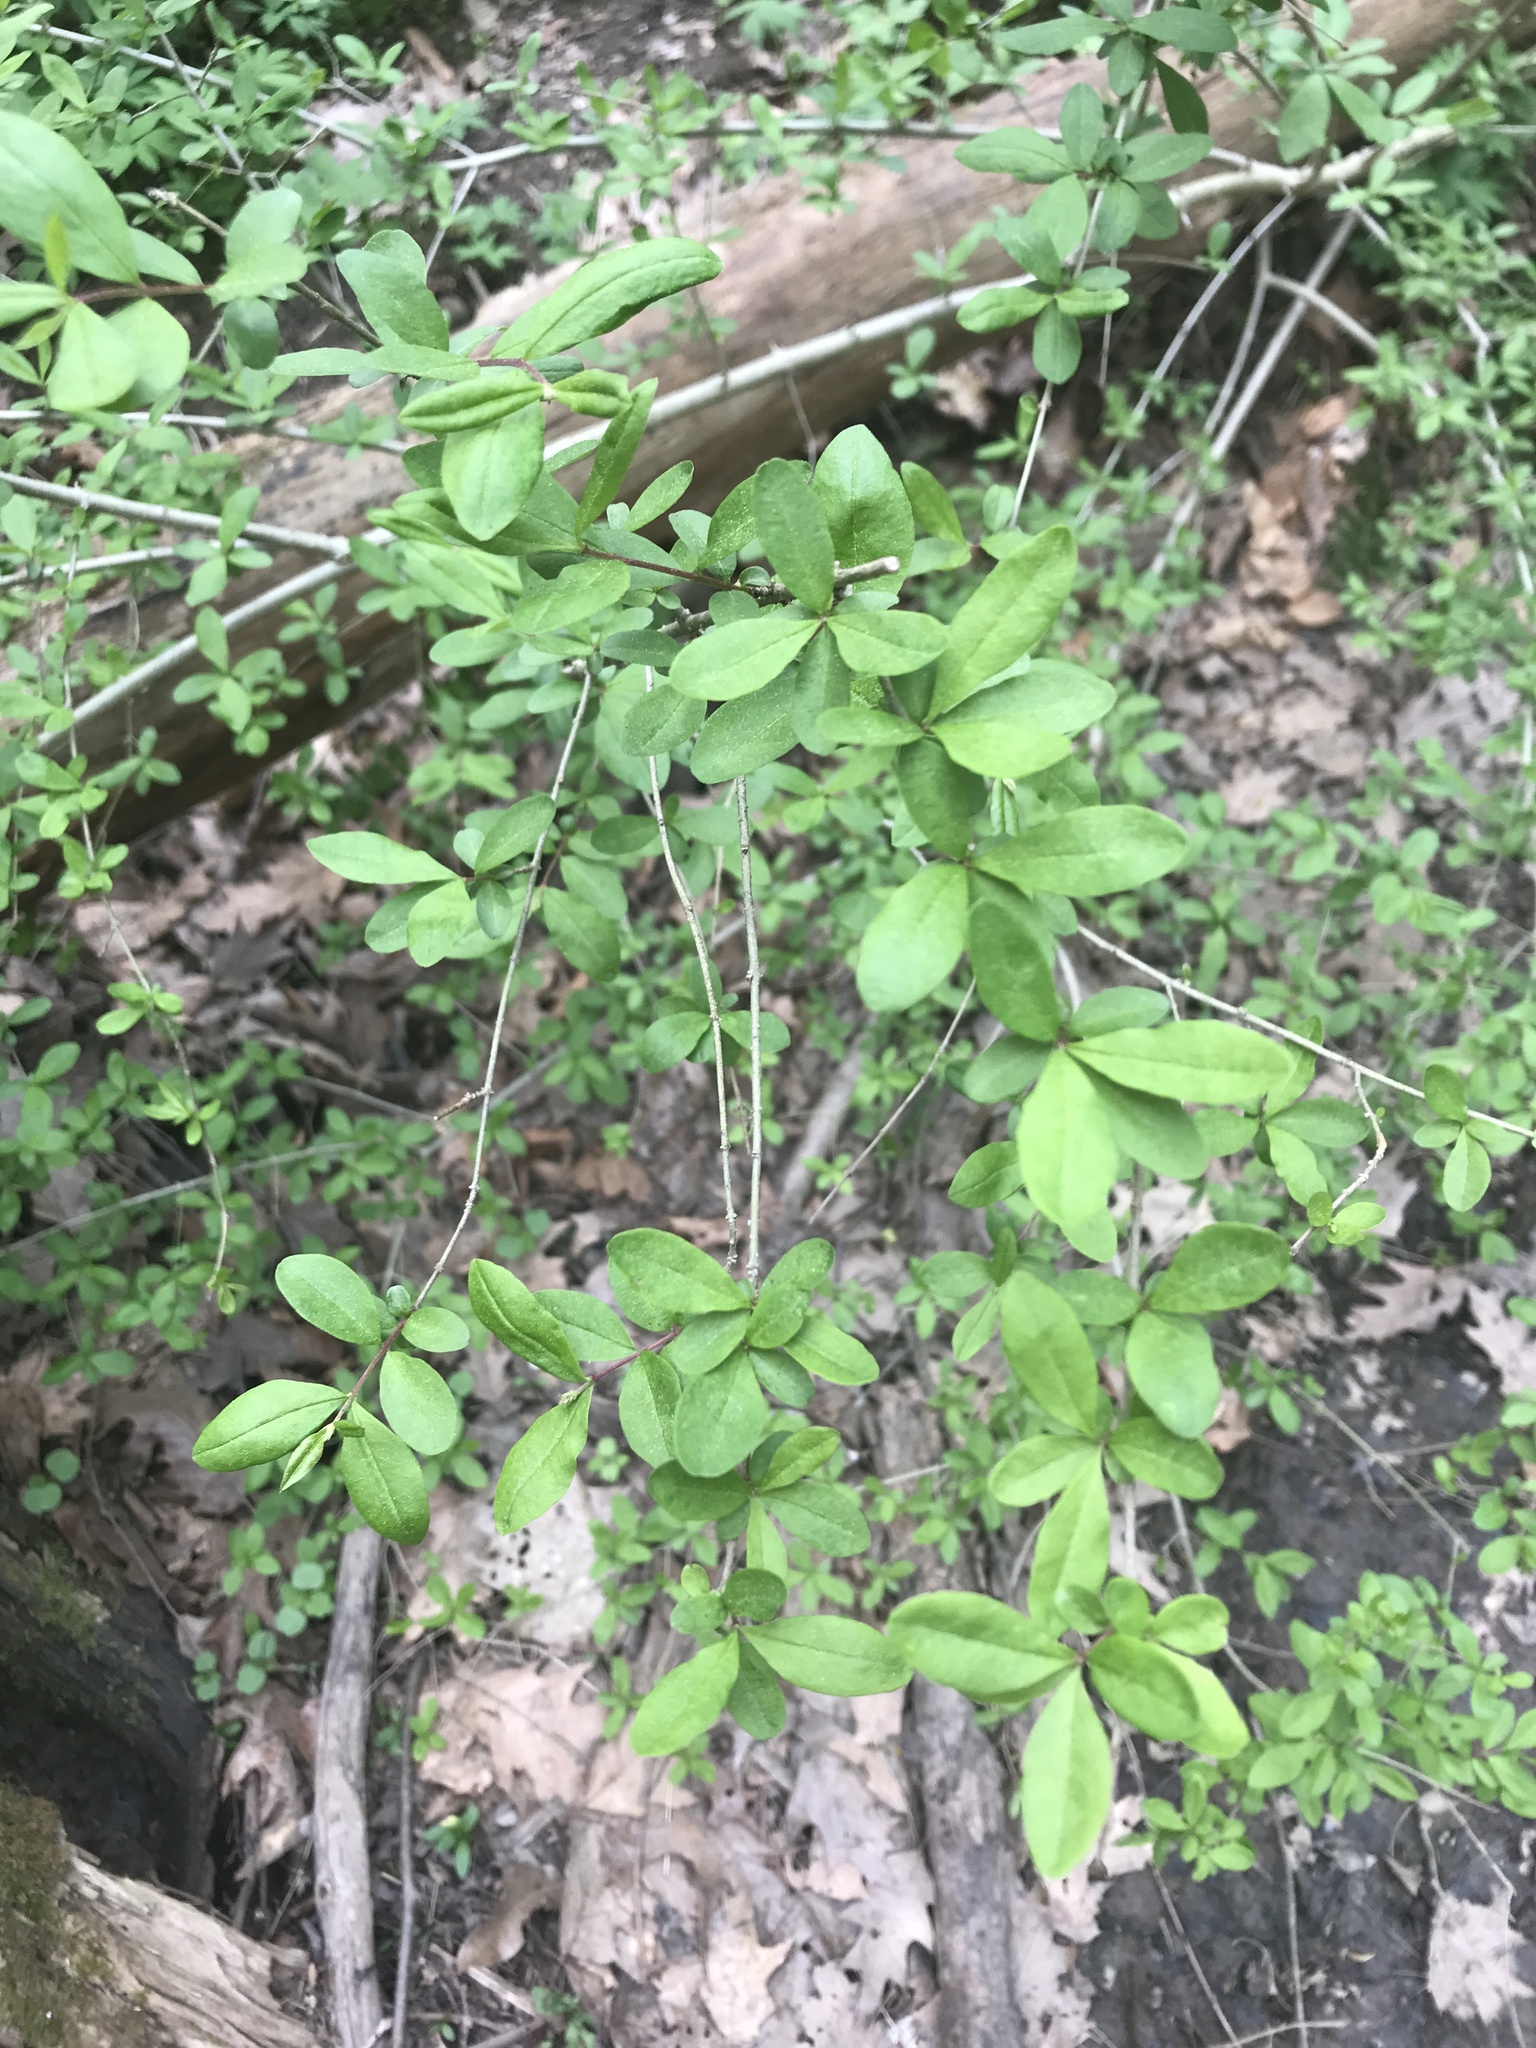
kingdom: Plantae
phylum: Tracheophyta
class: Magnoliopsida
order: Lamiales
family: Oleaceae
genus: Ligustrum
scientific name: Ligustrum obtusifolium
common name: Border privet
